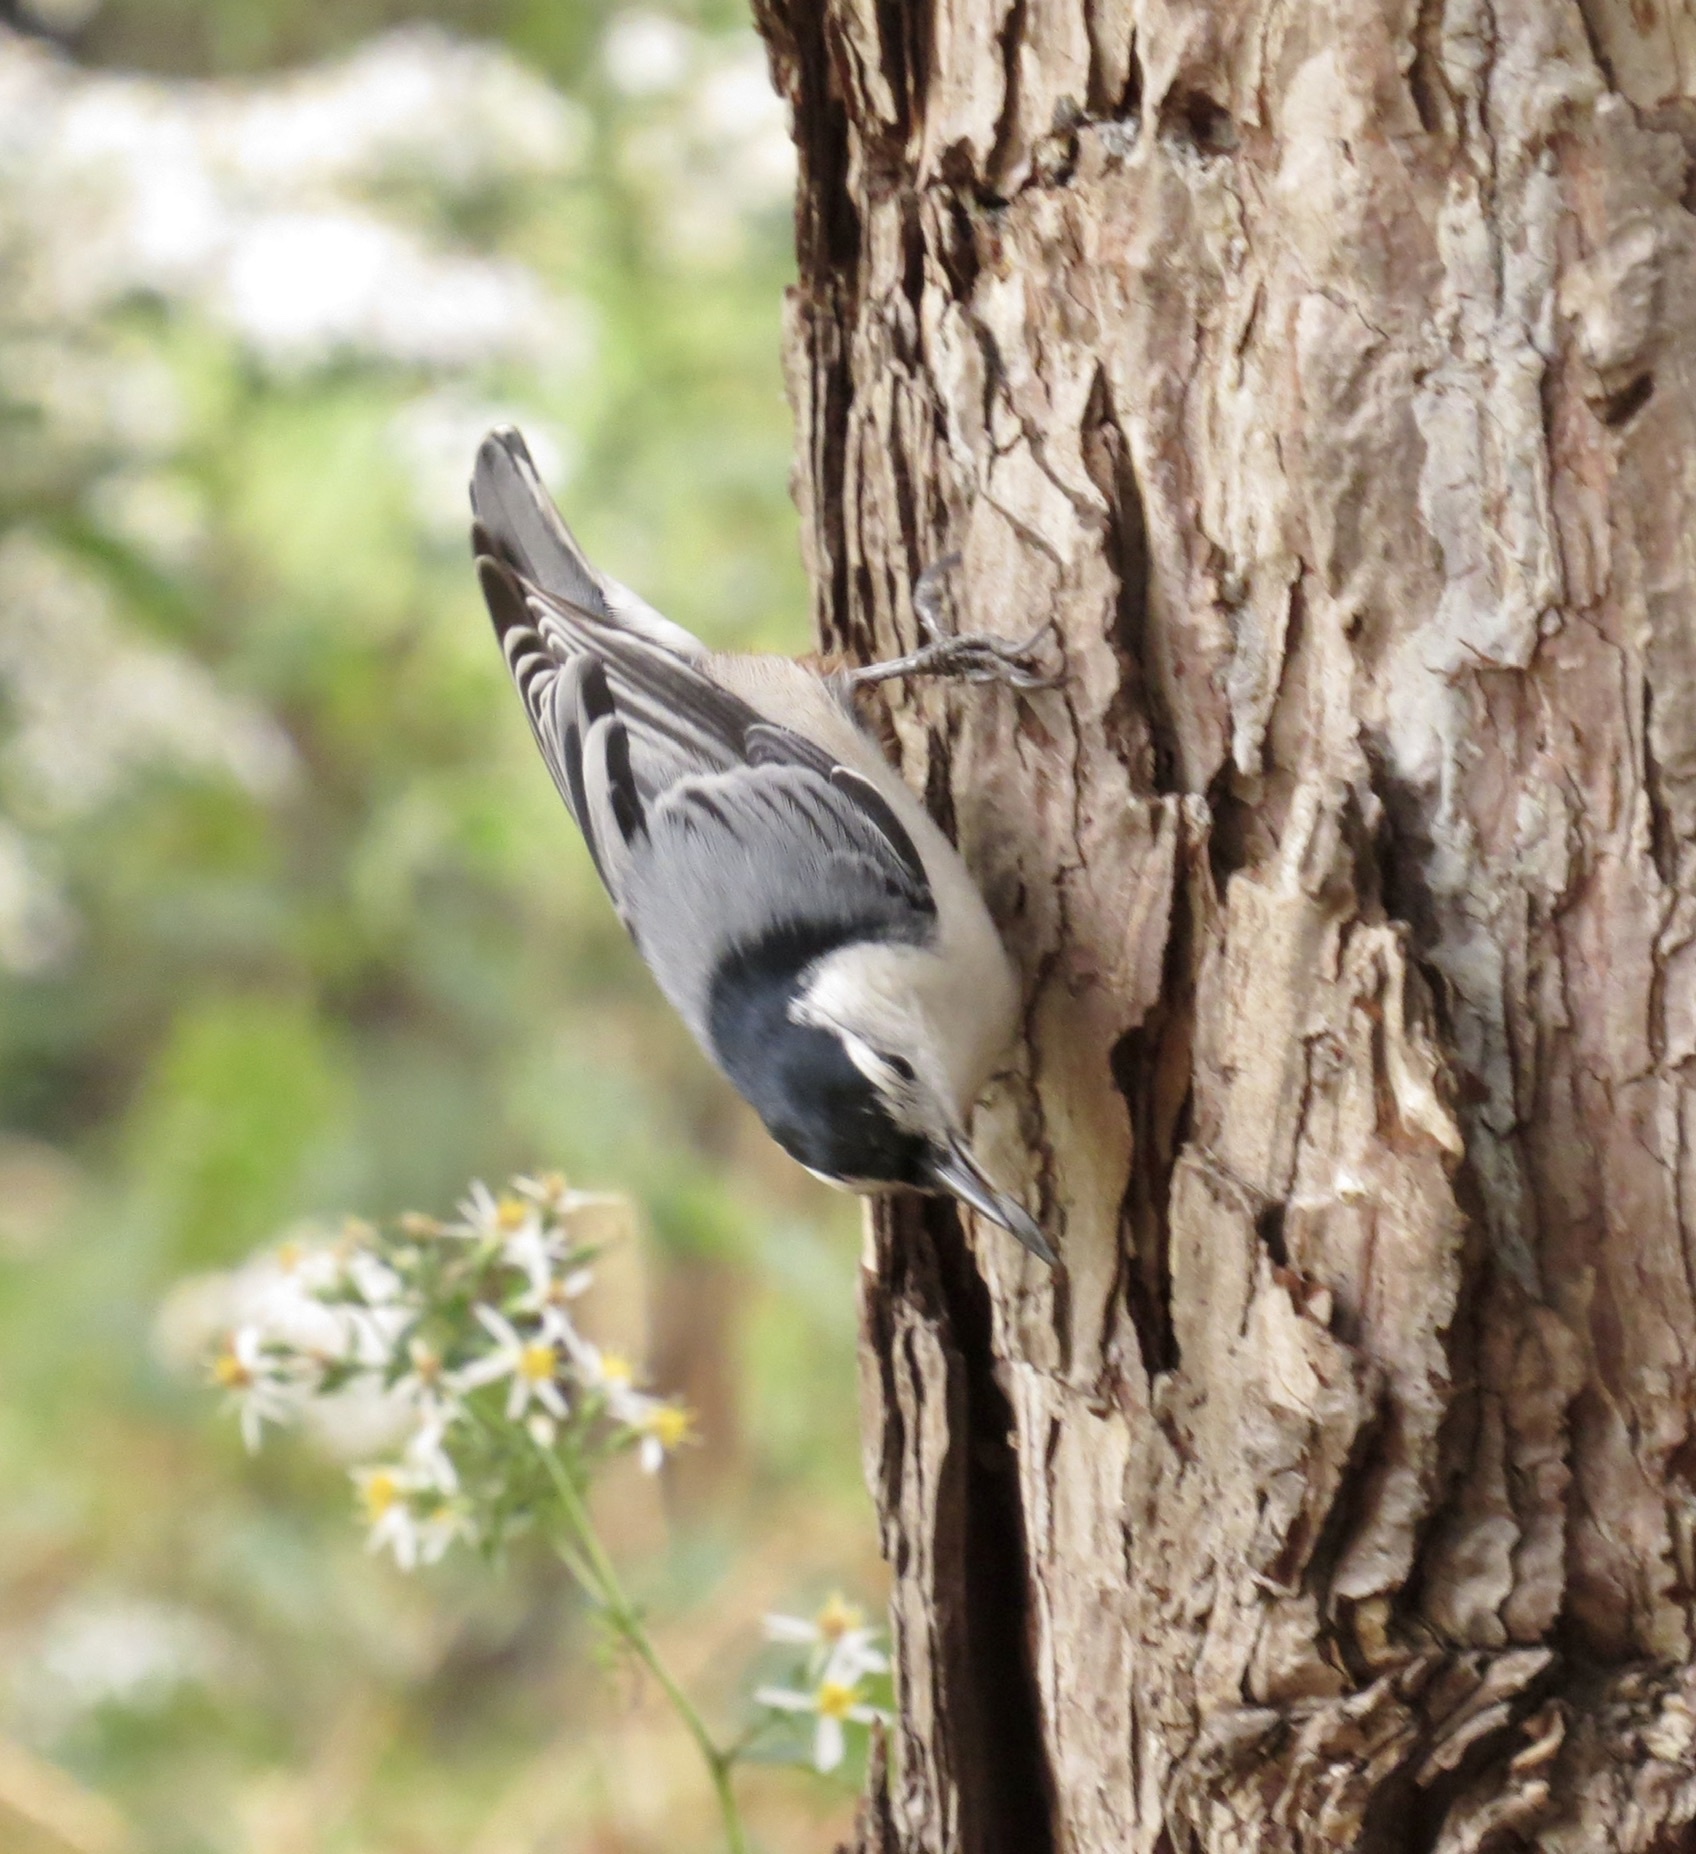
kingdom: Animalia
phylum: Chordata
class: Aves
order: Passeriformes
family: Sittidae
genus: Sitta
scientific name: Sitta carolinensis
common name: White-breasted nuthatch
